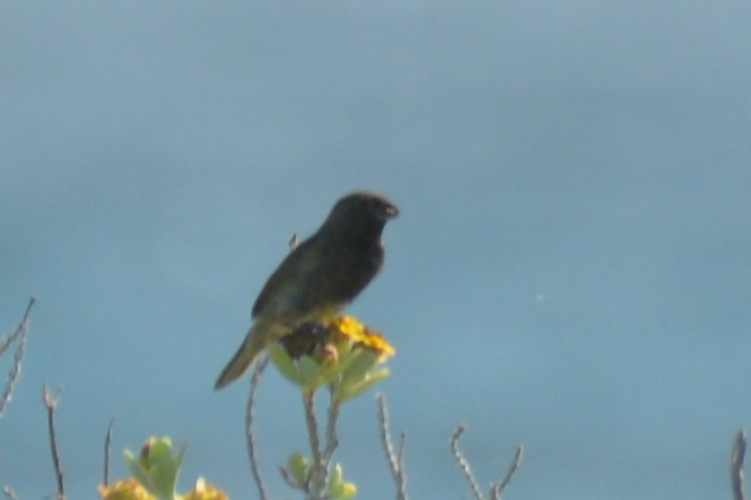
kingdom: Animalia
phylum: Chordata
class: Aves
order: Passeriformes
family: Thraupidae
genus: Melanospiza
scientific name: Melanospiza bicolor
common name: Black-faced grassquit
